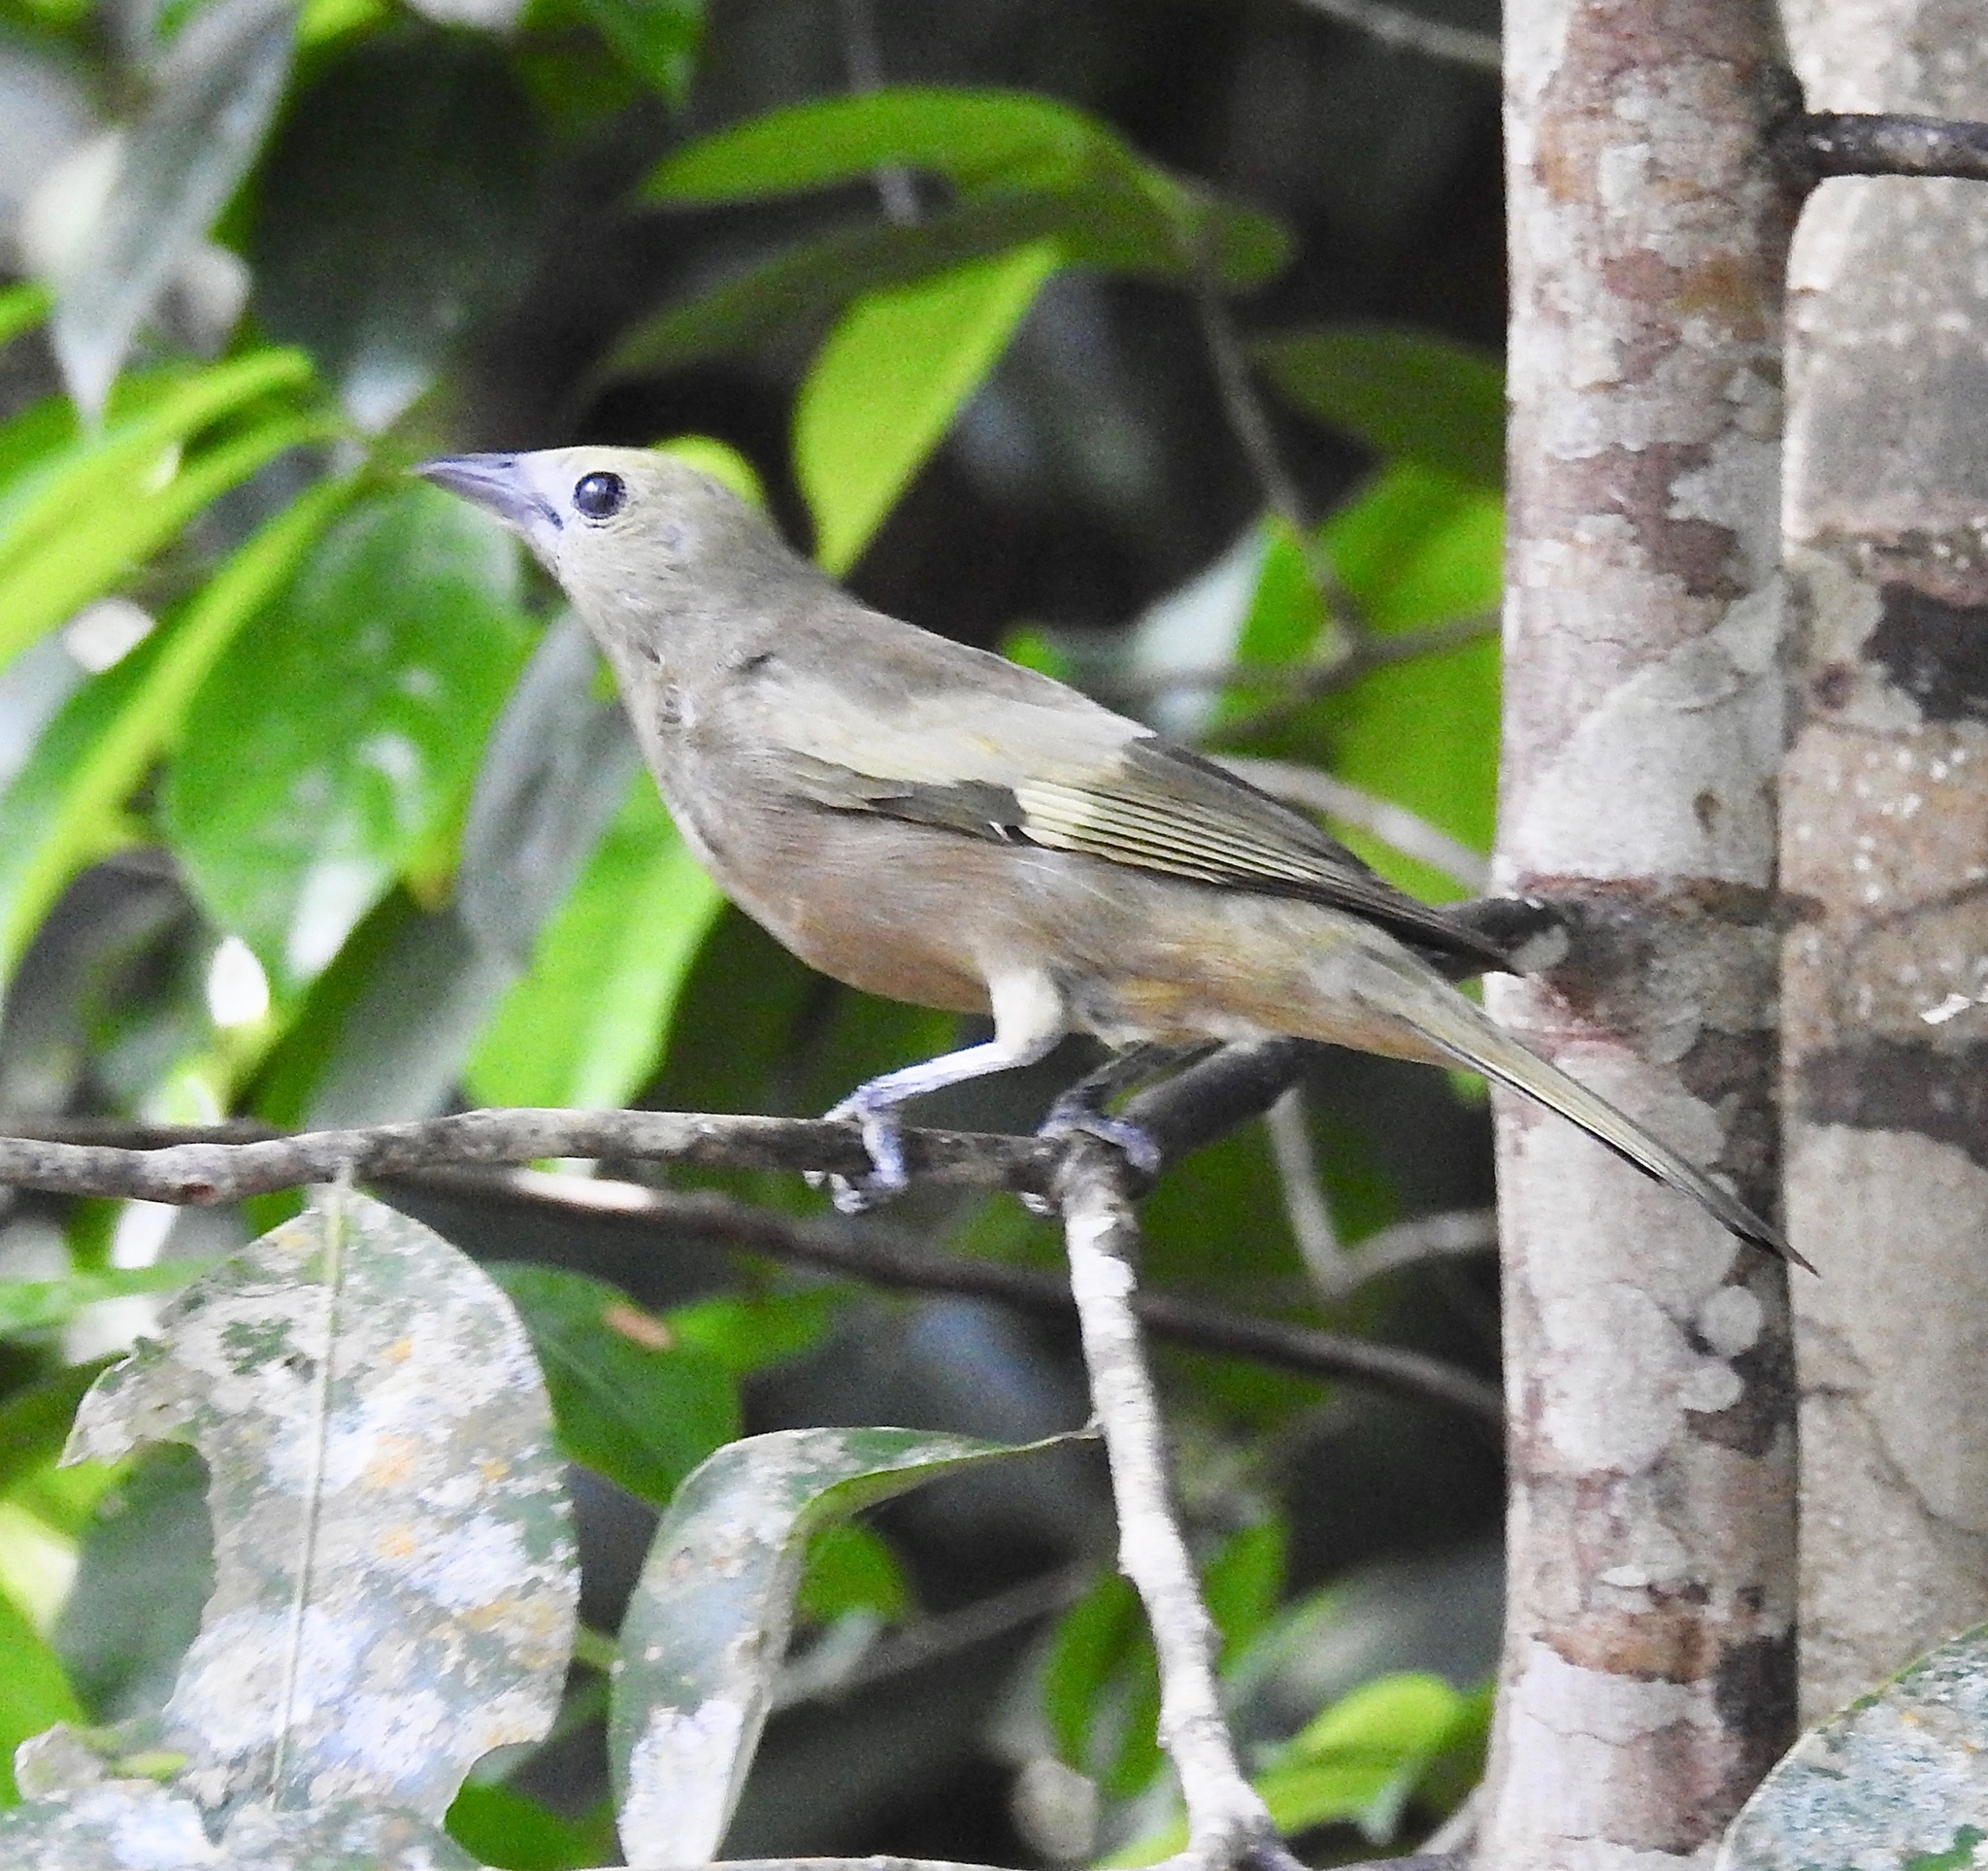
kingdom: Animalia
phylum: Chordata
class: Aves
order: Passeriformes
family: Thraupidae
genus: Thraupis
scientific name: Thraupis palmarum
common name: Palm tanager
